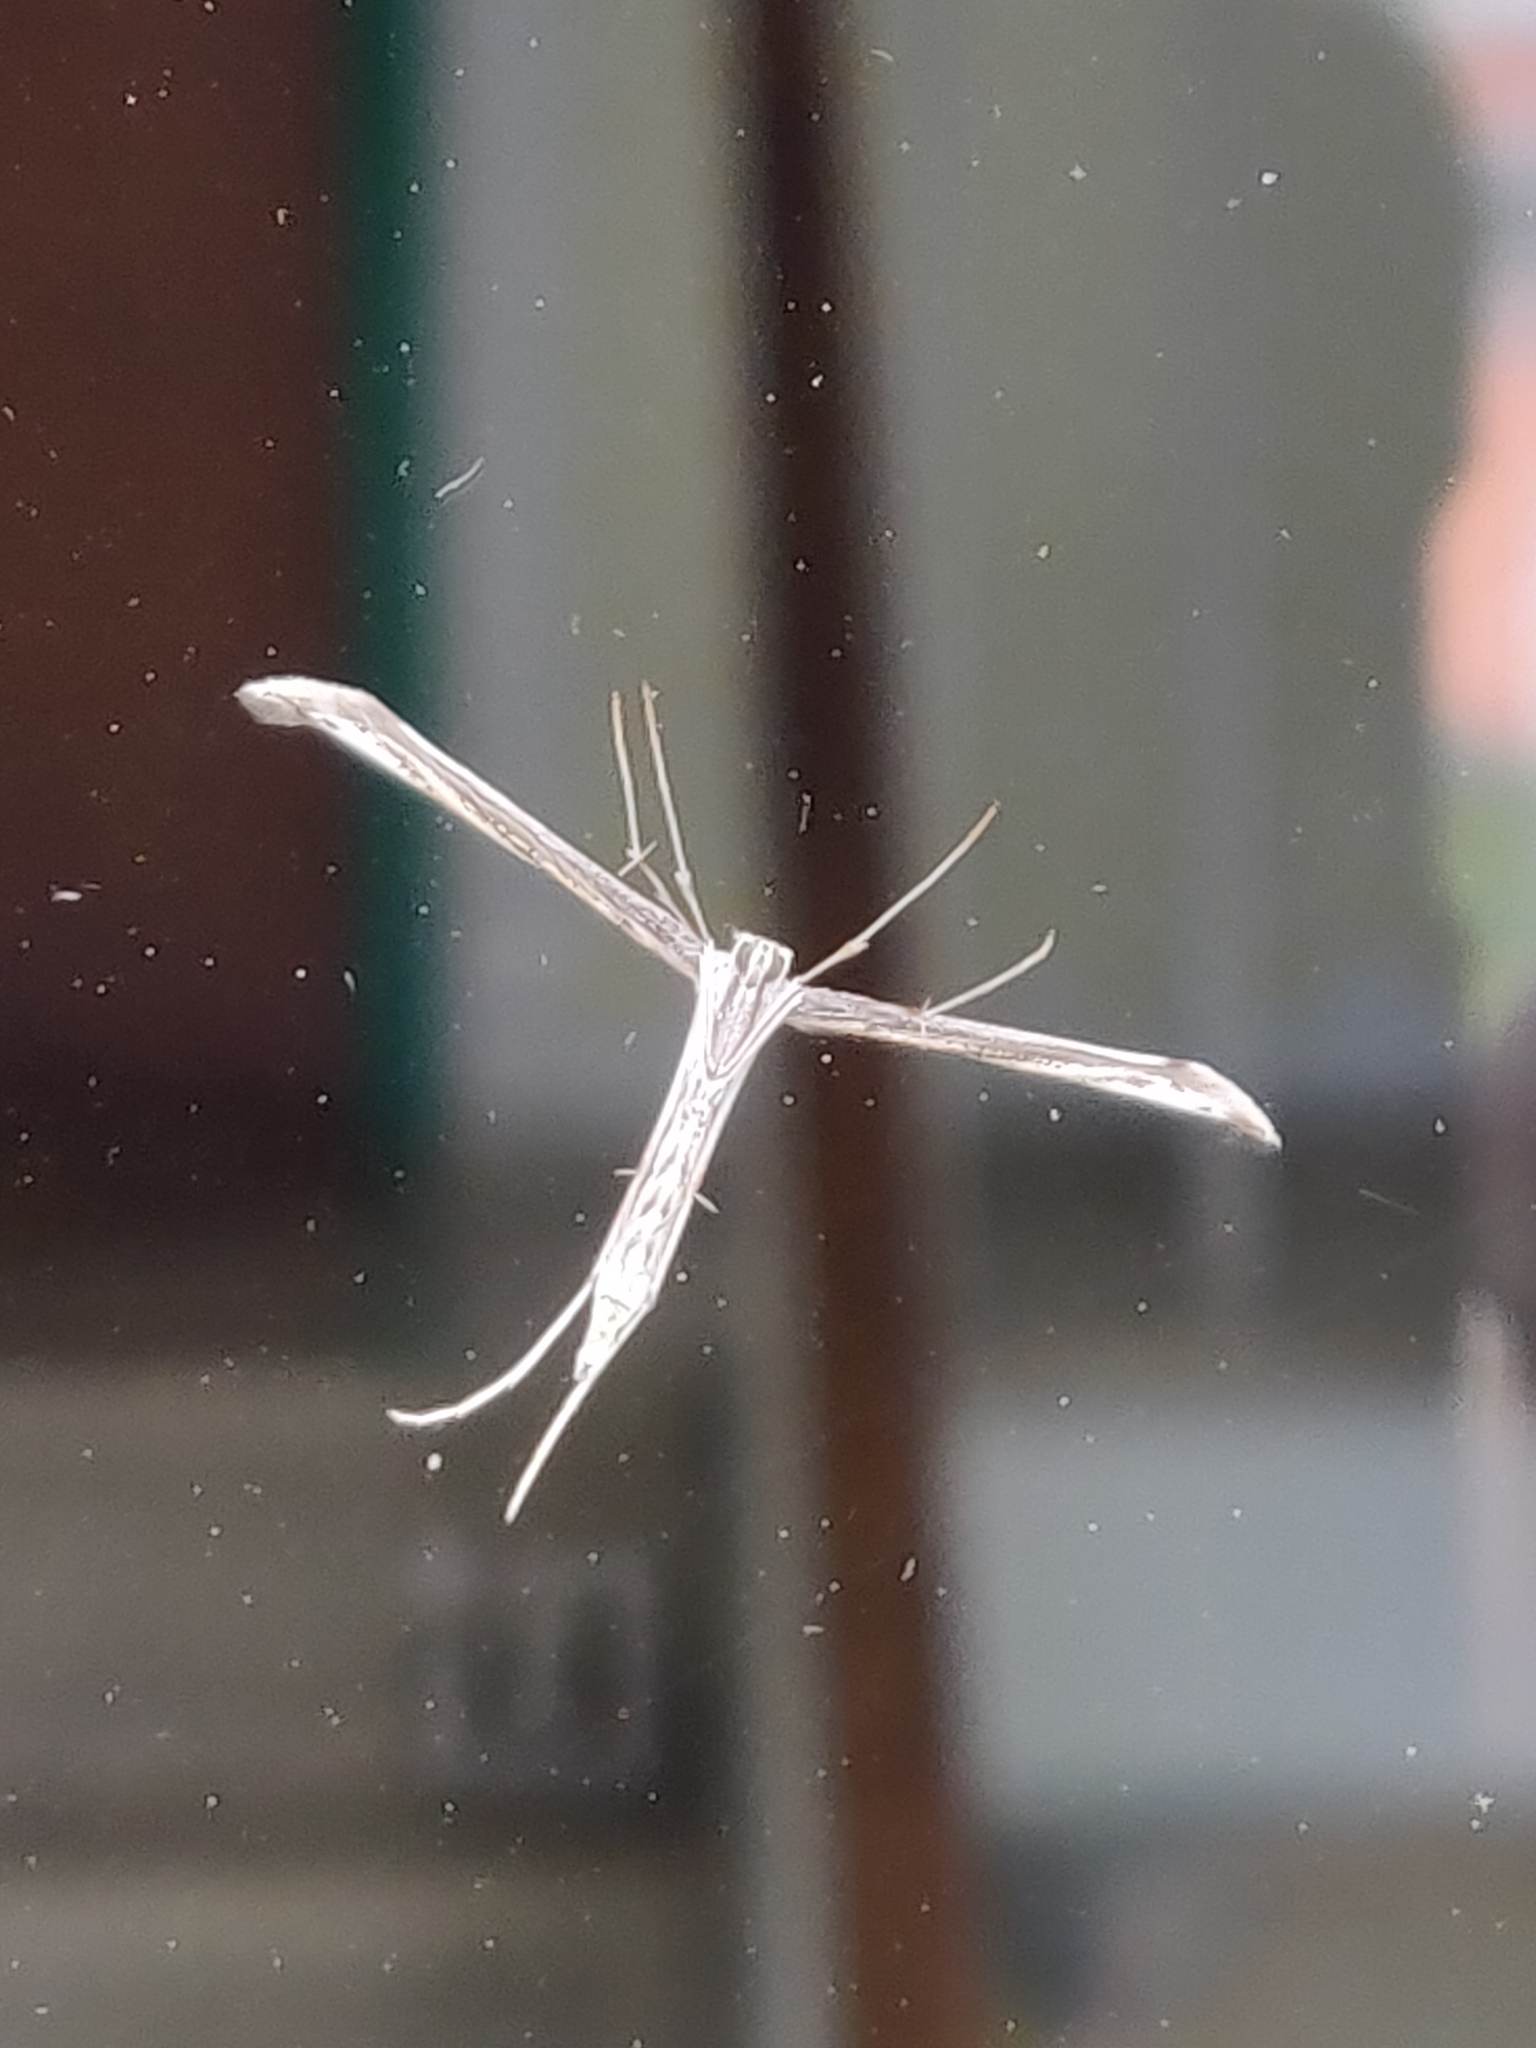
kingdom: Animalia
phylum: Arthropoda
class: Insecta
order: Lepidoptera
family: Pterophoridae
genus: Emmelina
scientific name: Emmelina monodactyla
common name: Common plume
